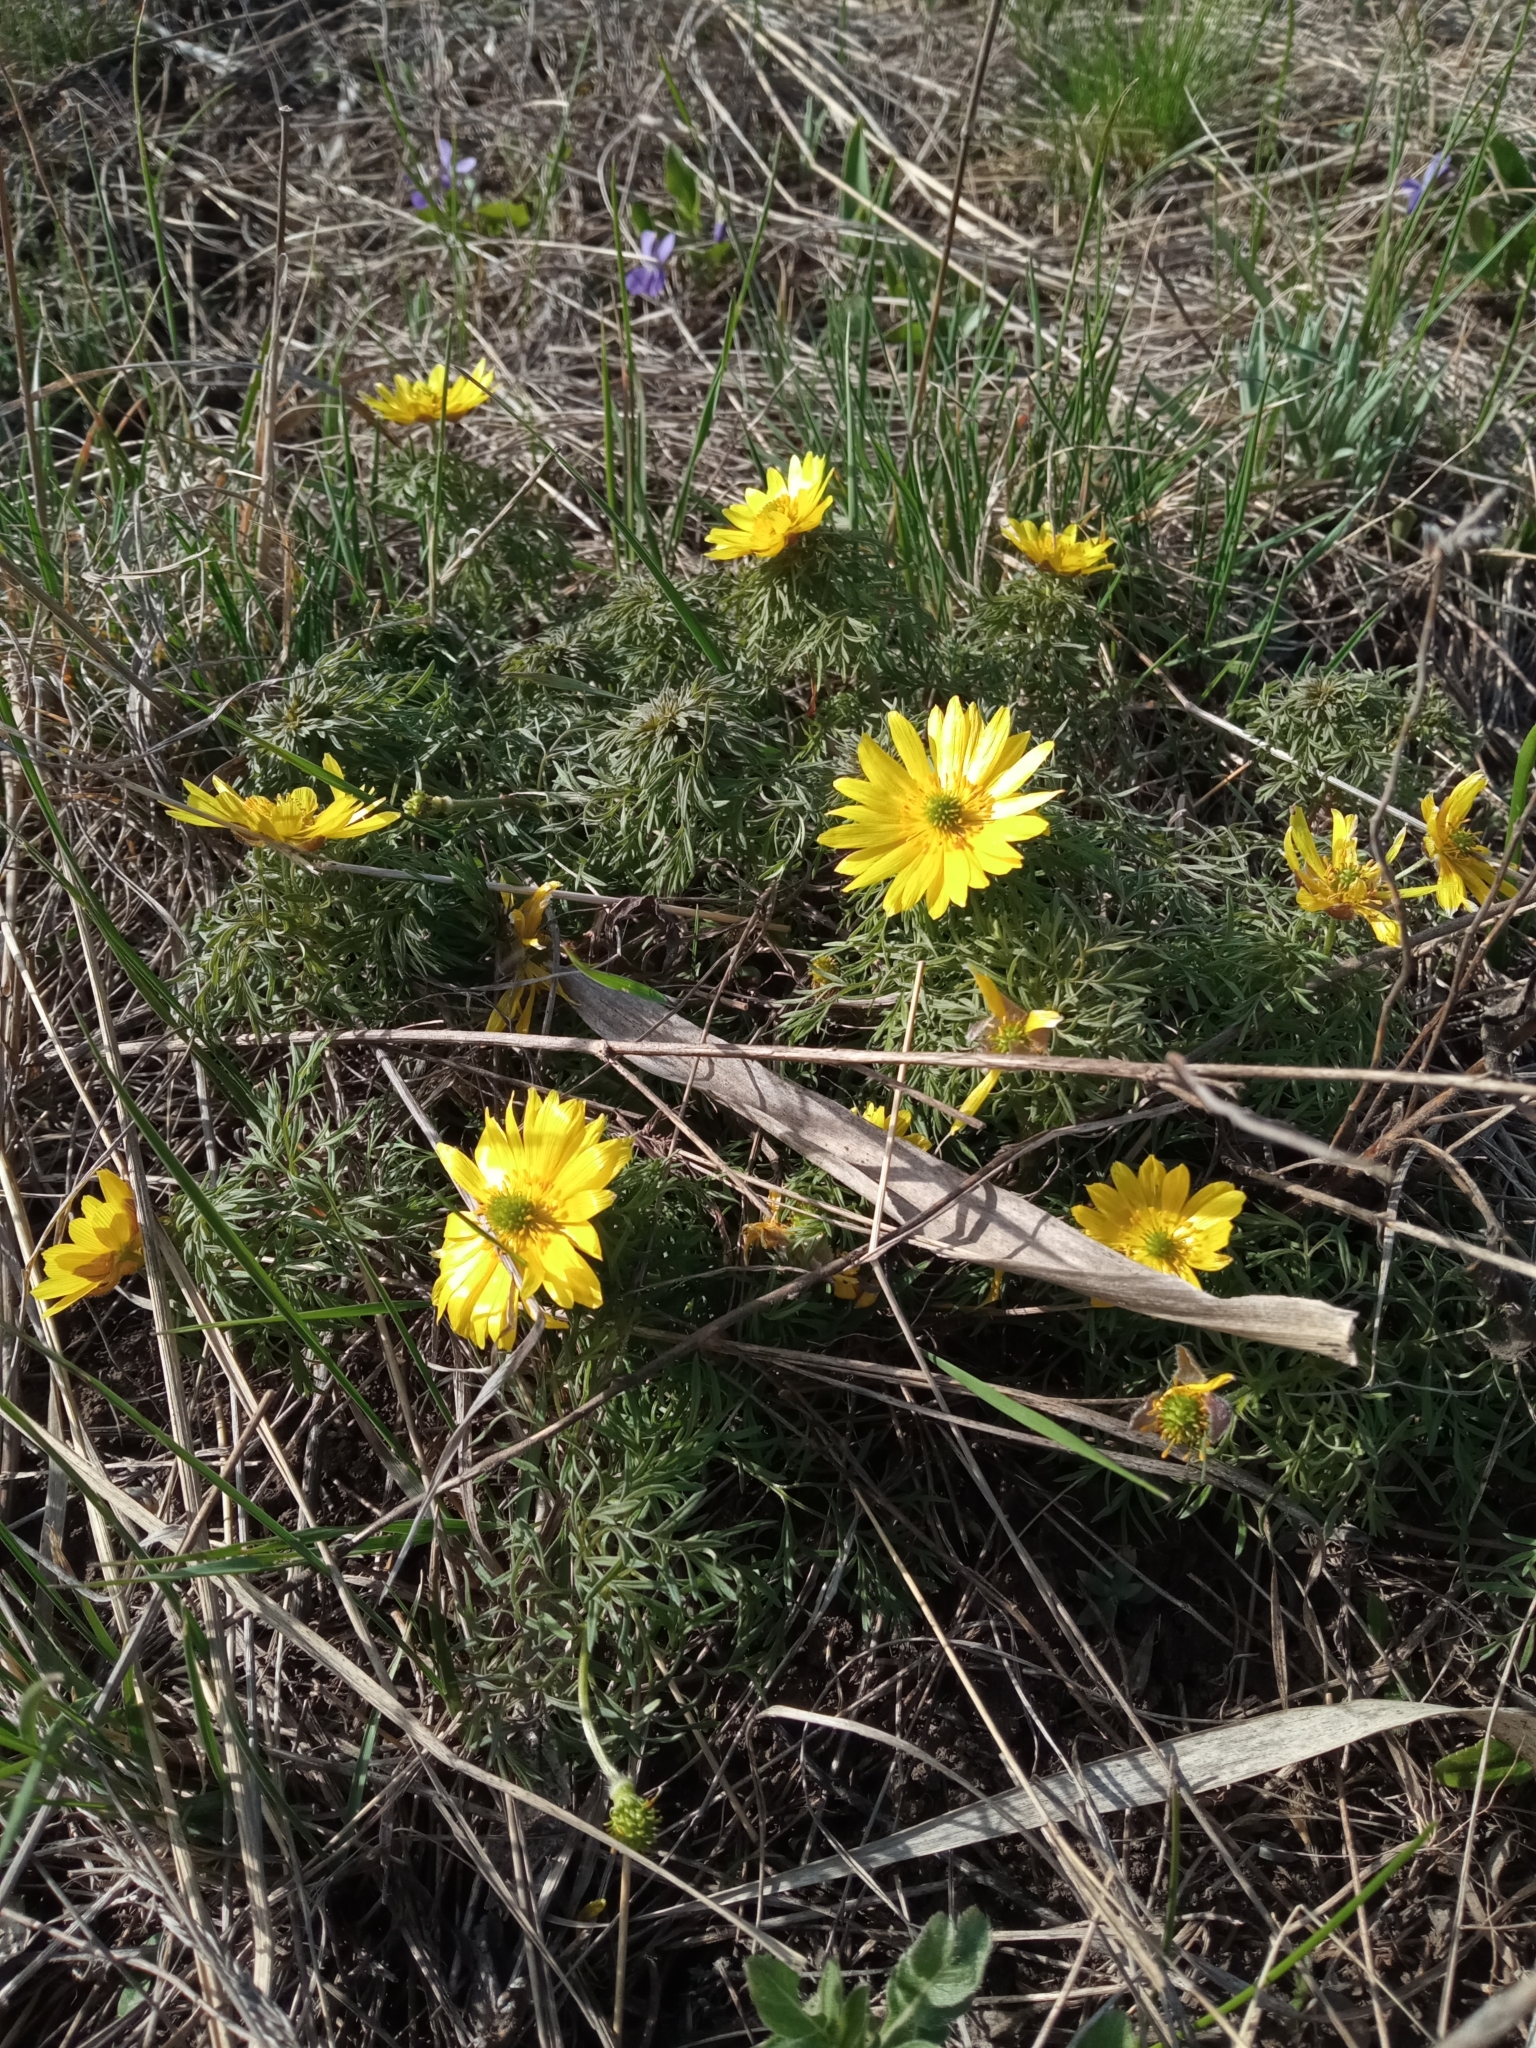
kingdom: Plantae
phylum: Tracheophyta
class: Magnoliopsida
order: Ranunculales
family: Ranunculaceae
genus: Adonis
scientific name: Adonis volgensis
